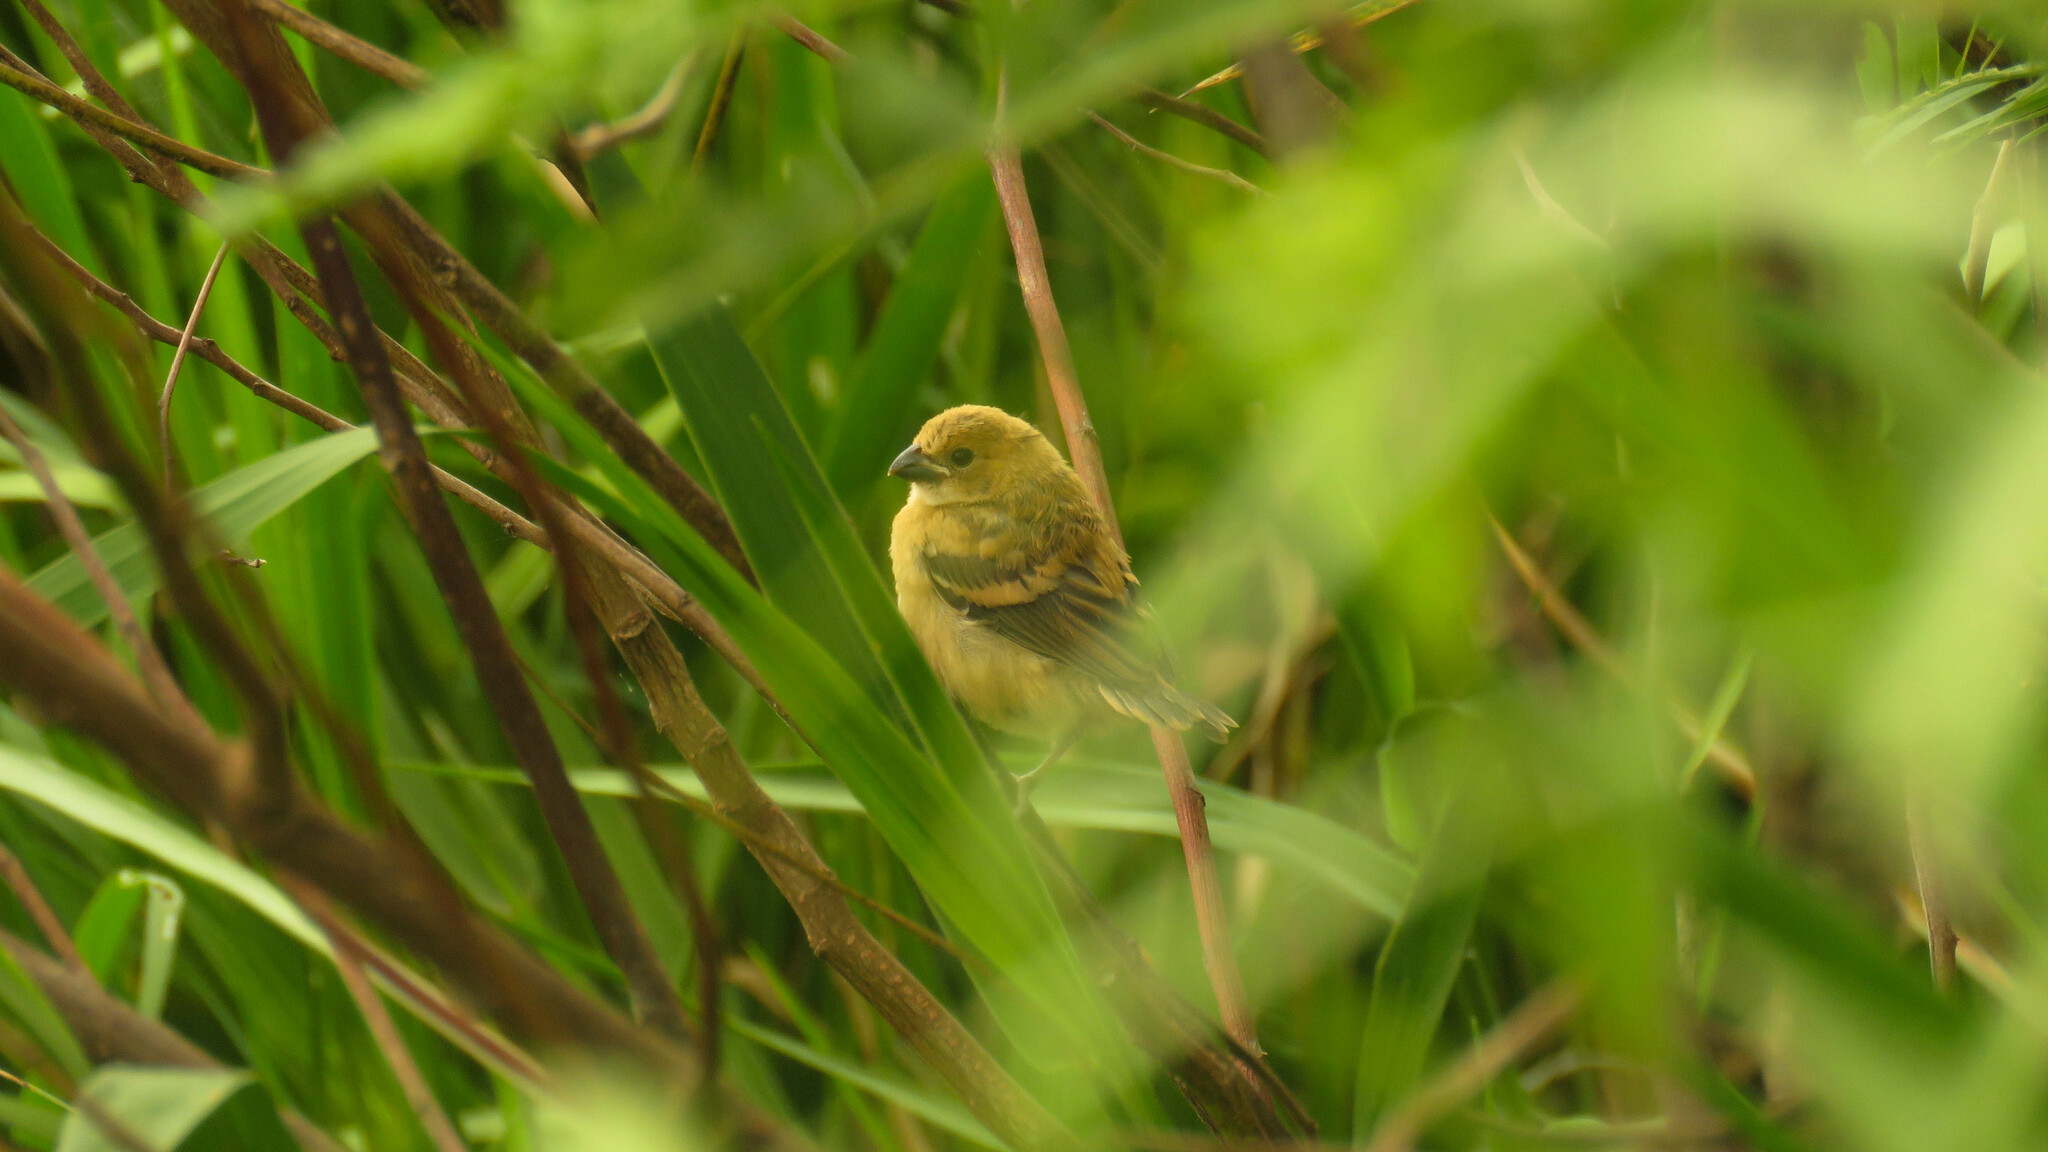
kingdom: Animalia
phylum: Chordata
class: Aves
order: Passeriformes
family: Thraupidae
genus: Sporophila
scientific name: Sporophila collaris
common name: Rusty-collared seedeater
